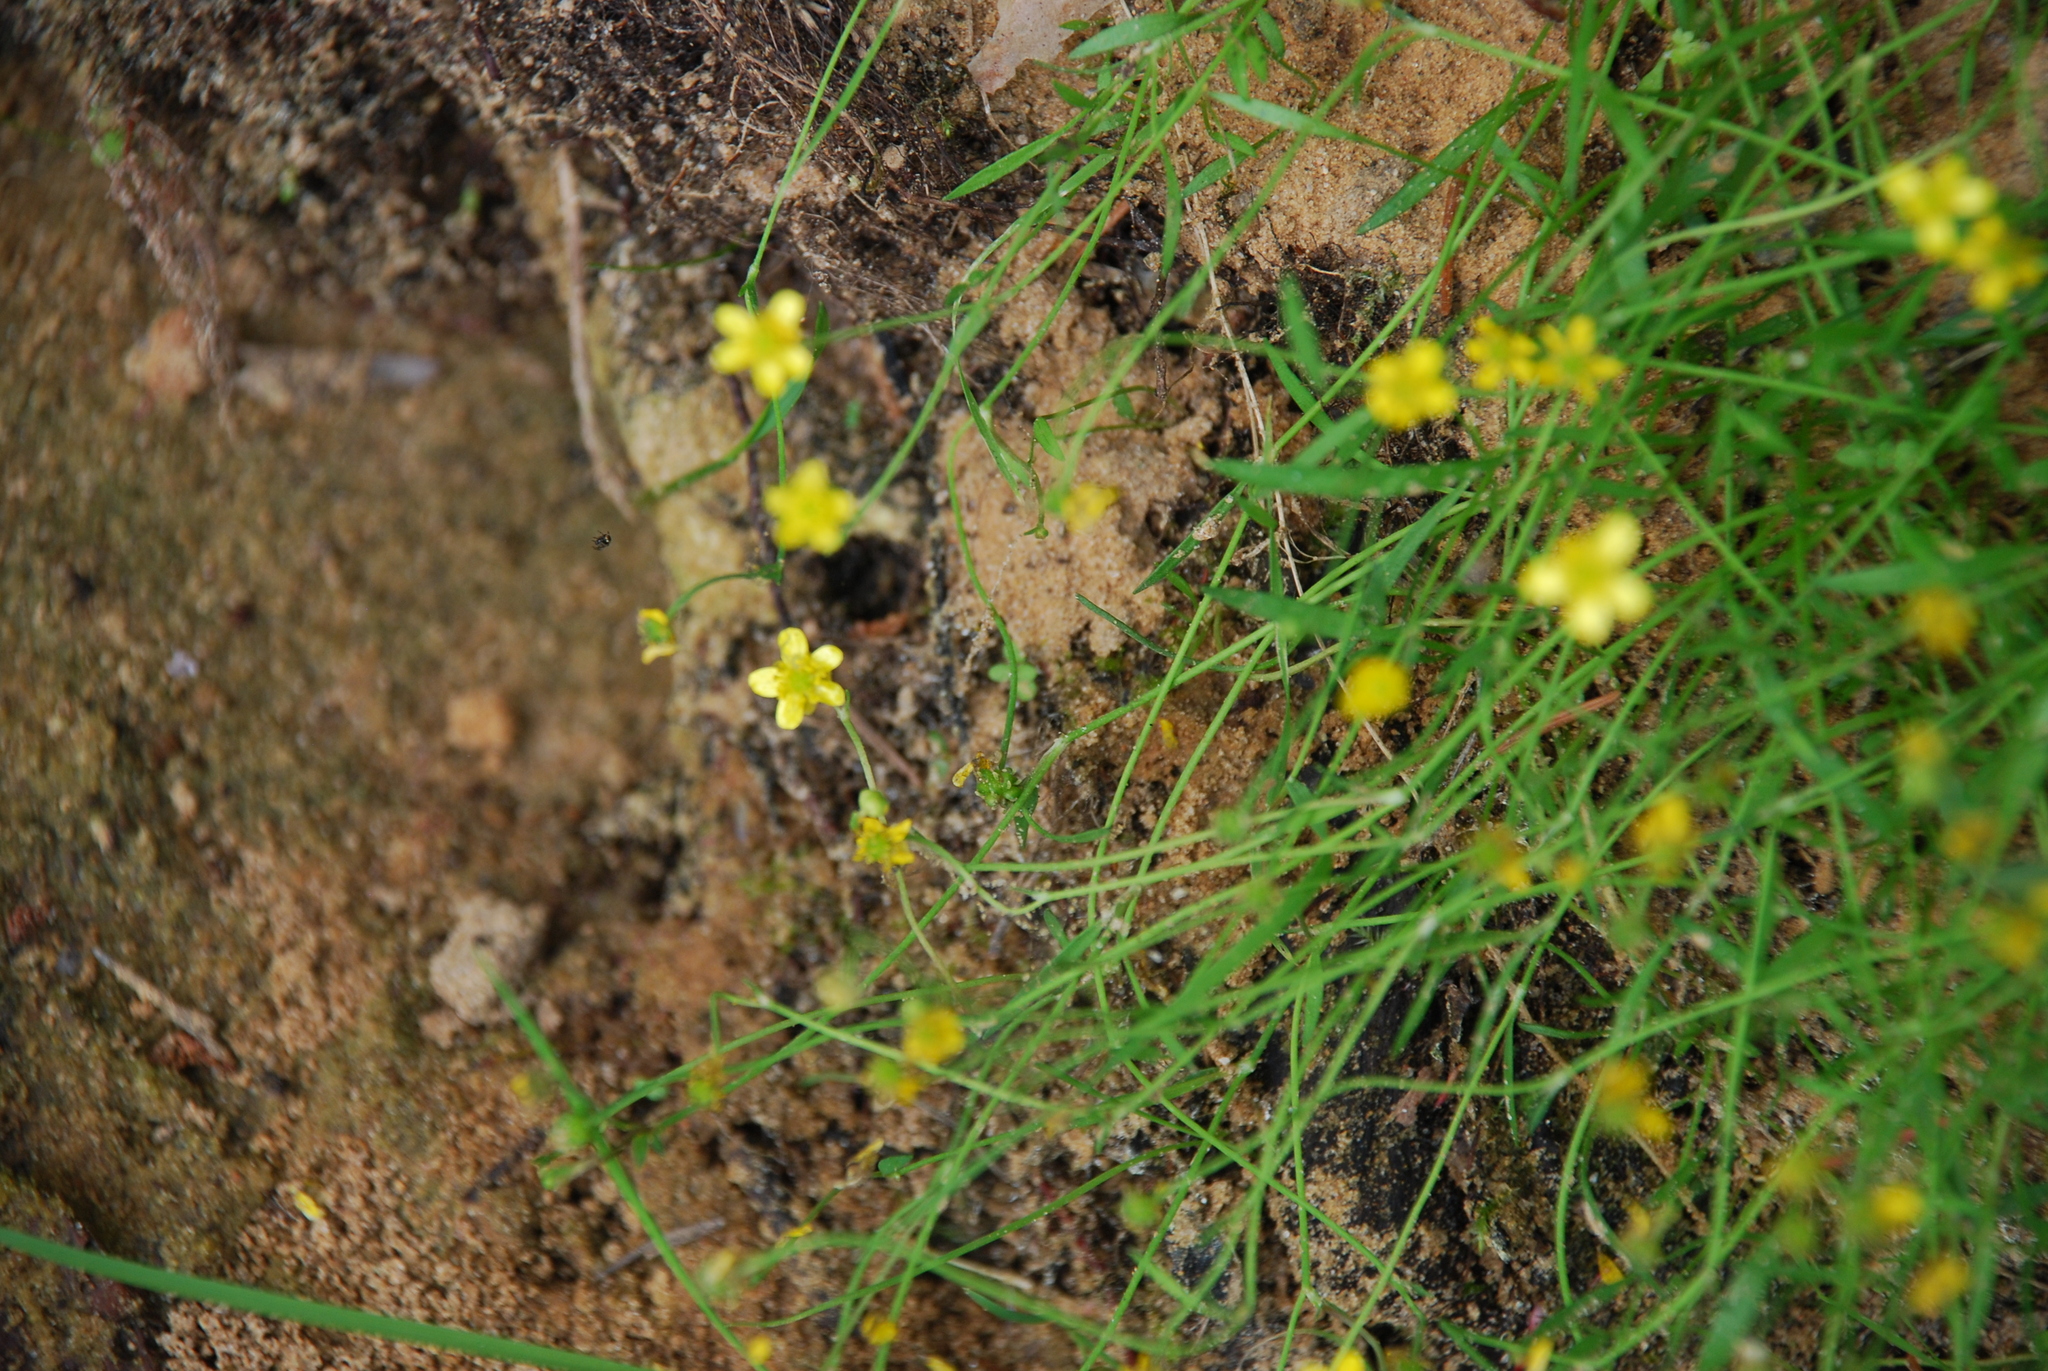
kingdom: Plantae
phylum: Tracheophyta
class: Magnoliopsida
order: Ranunculales
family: Ranunculaceae
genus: Ranunculus
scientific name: Ranunculus reptans
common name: Creeping spearwort
